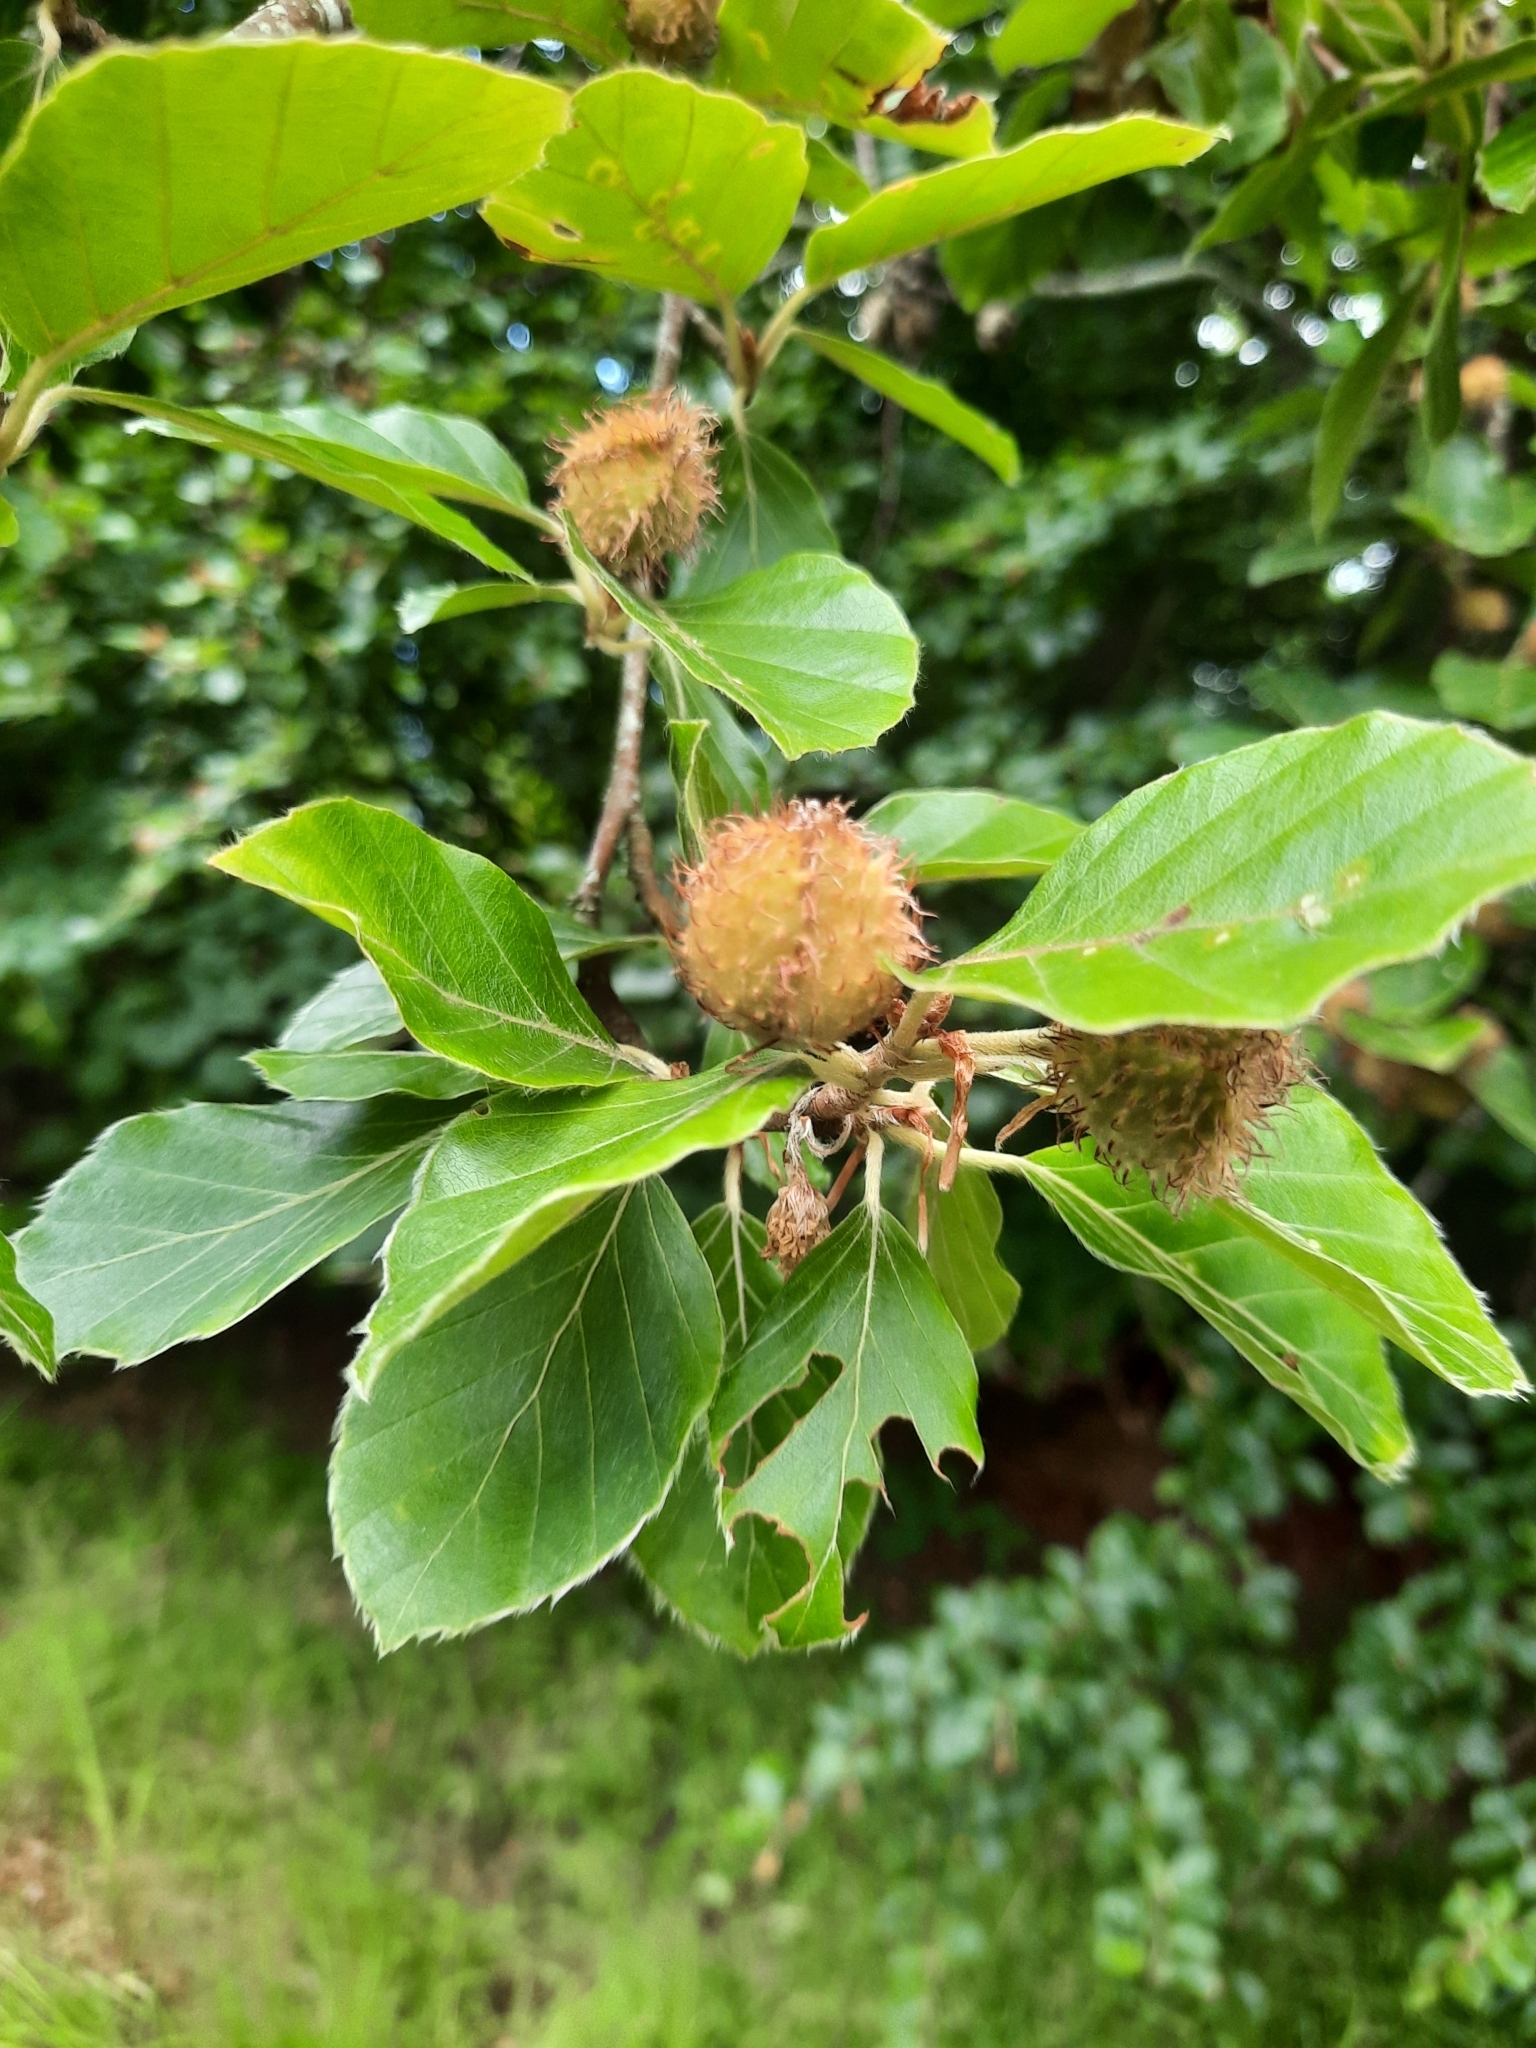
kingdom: Plantae
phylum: Tracheophyta
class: Magnoliopsida
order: Fagales
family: Fagaceae
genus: Fagus
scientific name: Fagus sylvatica
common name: Beech
